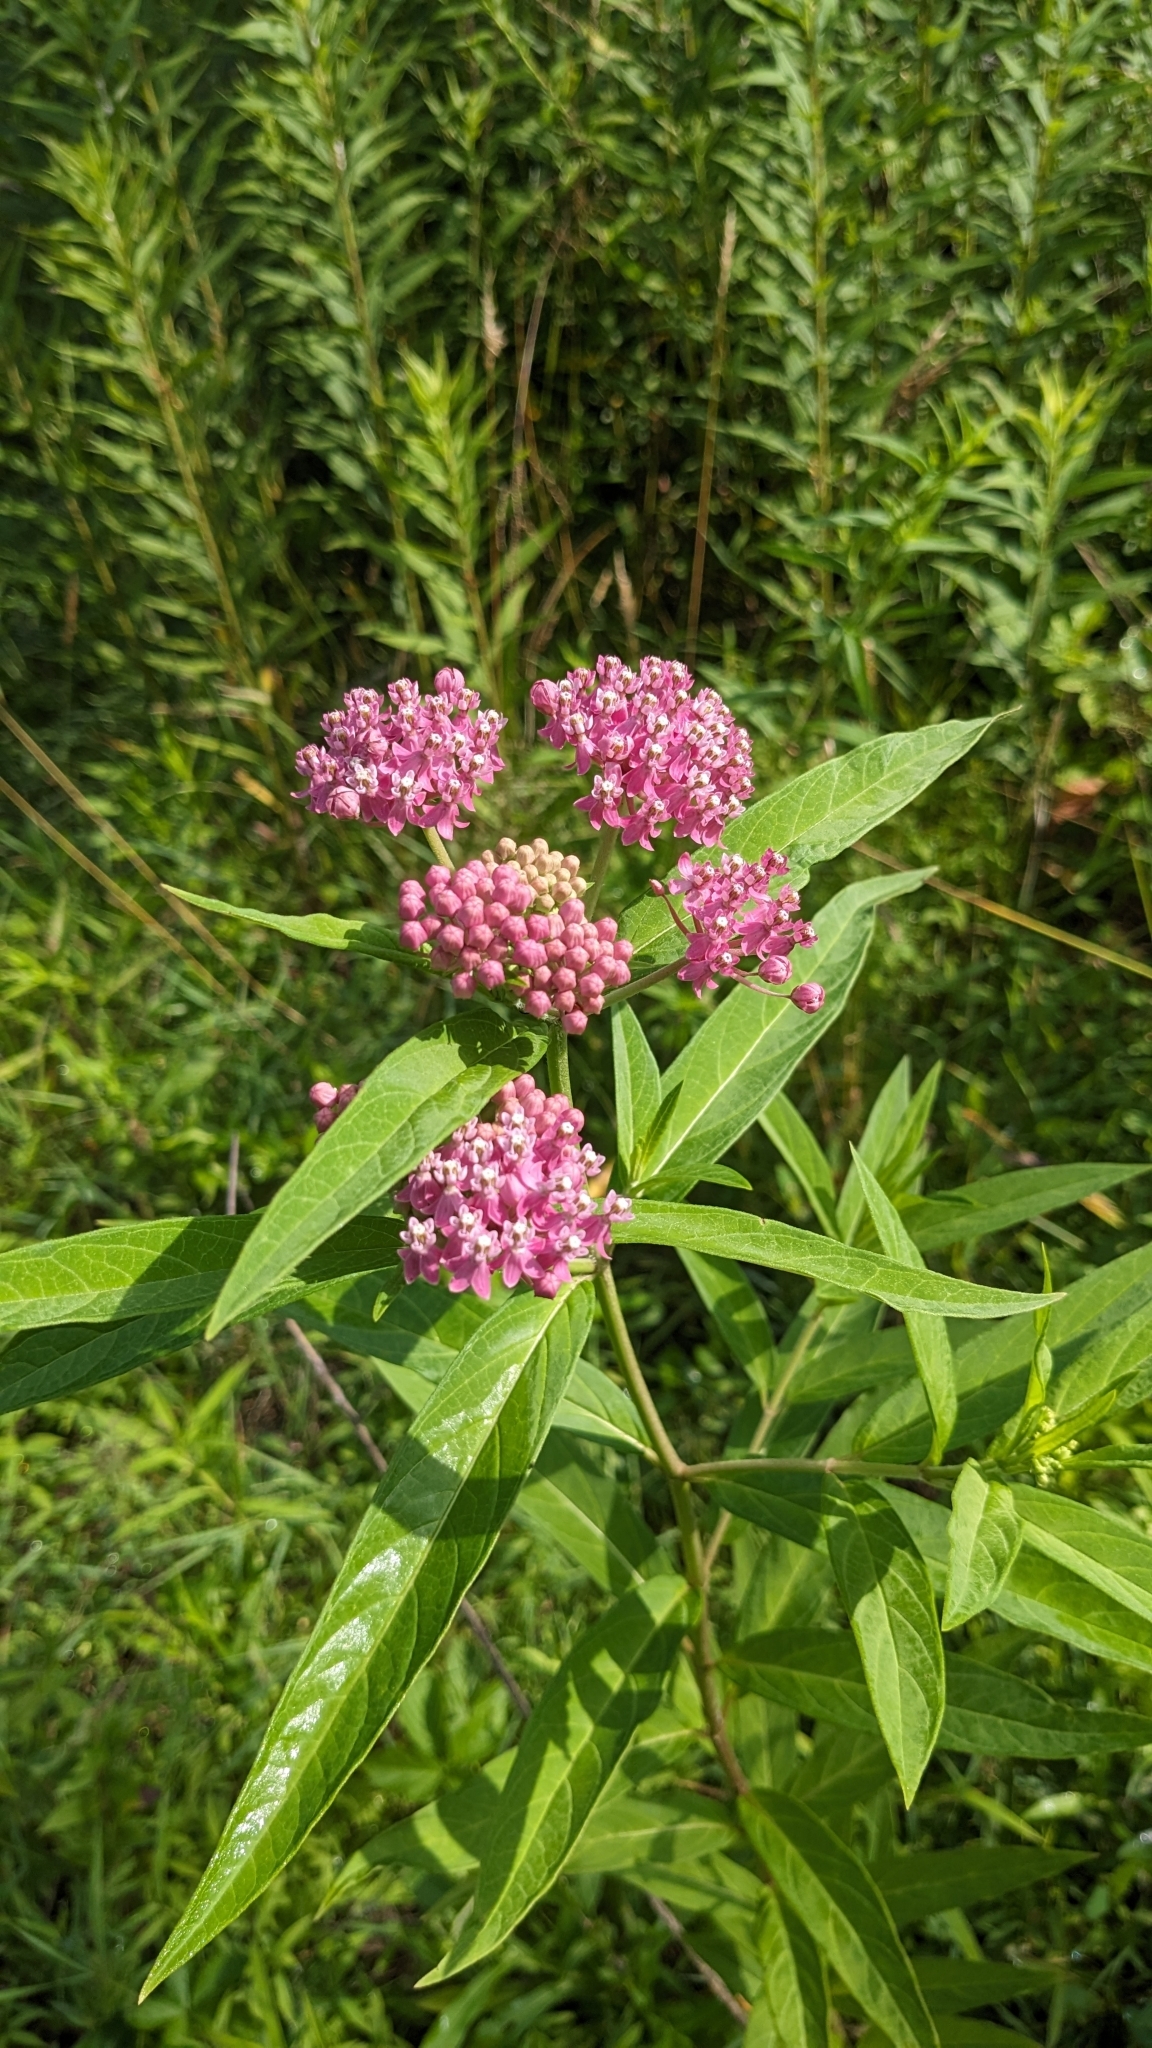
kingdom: Plantae
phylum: Tracheophyta
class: Magnoliopsida
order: Gentianales
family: Apocynaceae
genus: Asclepias
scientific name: Asclepias incarnata
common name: Swamp milkweed
